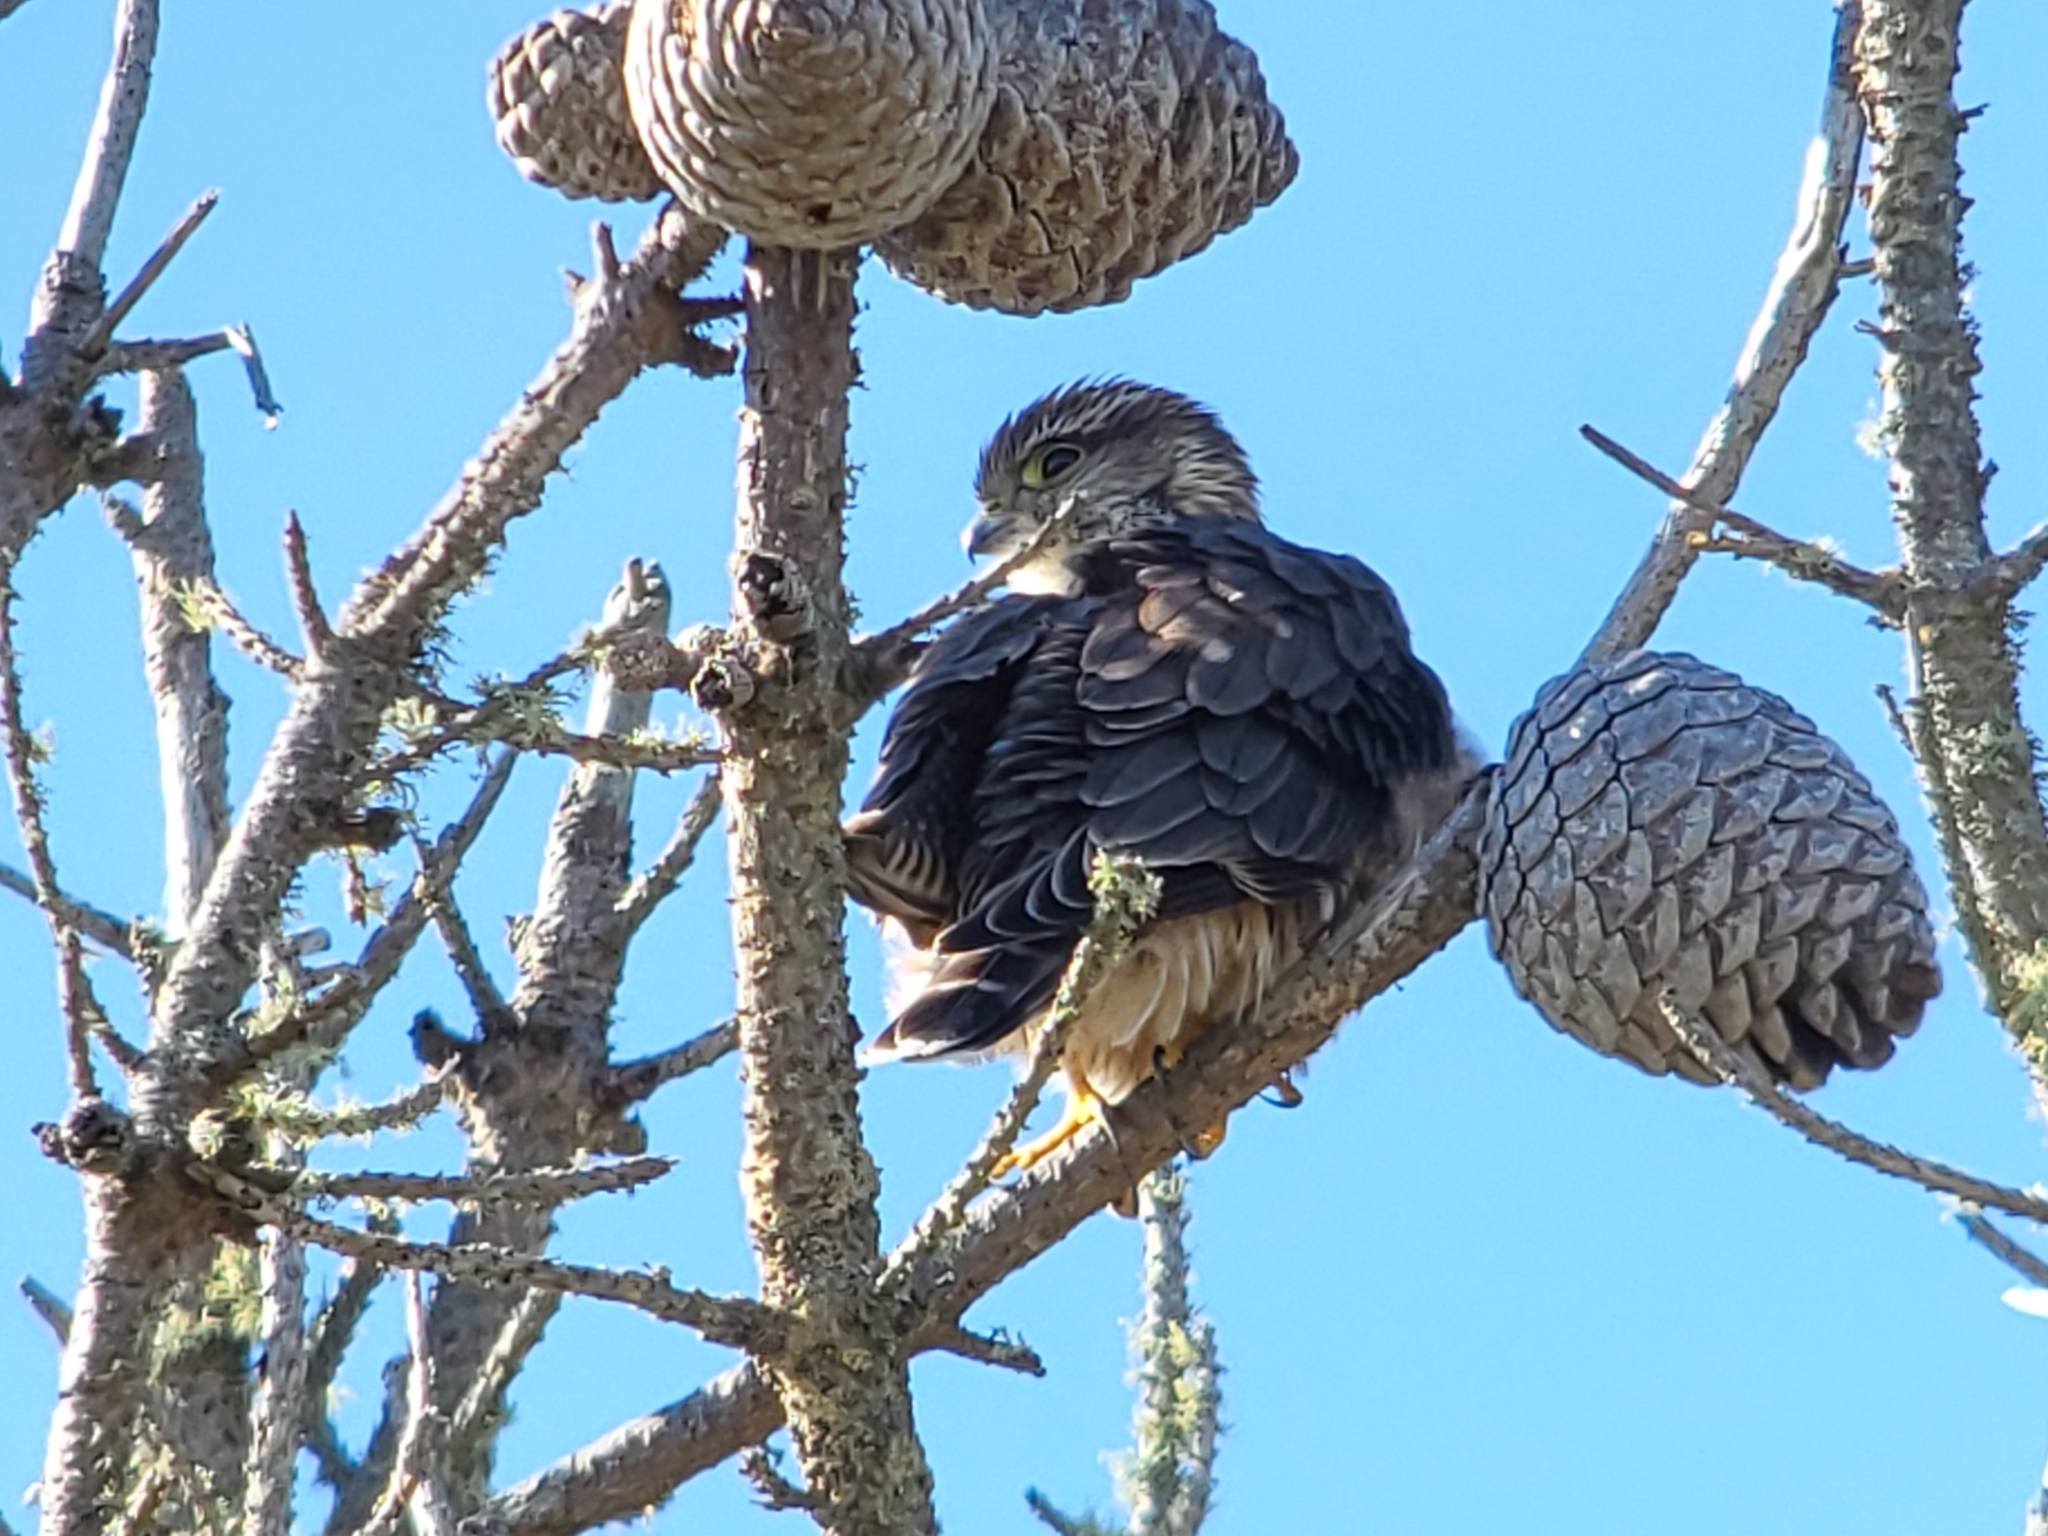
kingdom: Animalia
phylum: Chordata
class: Aves
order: Falconiformes
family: Falconidae
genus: Falco
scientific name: Falco columbarius
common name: Merlin
